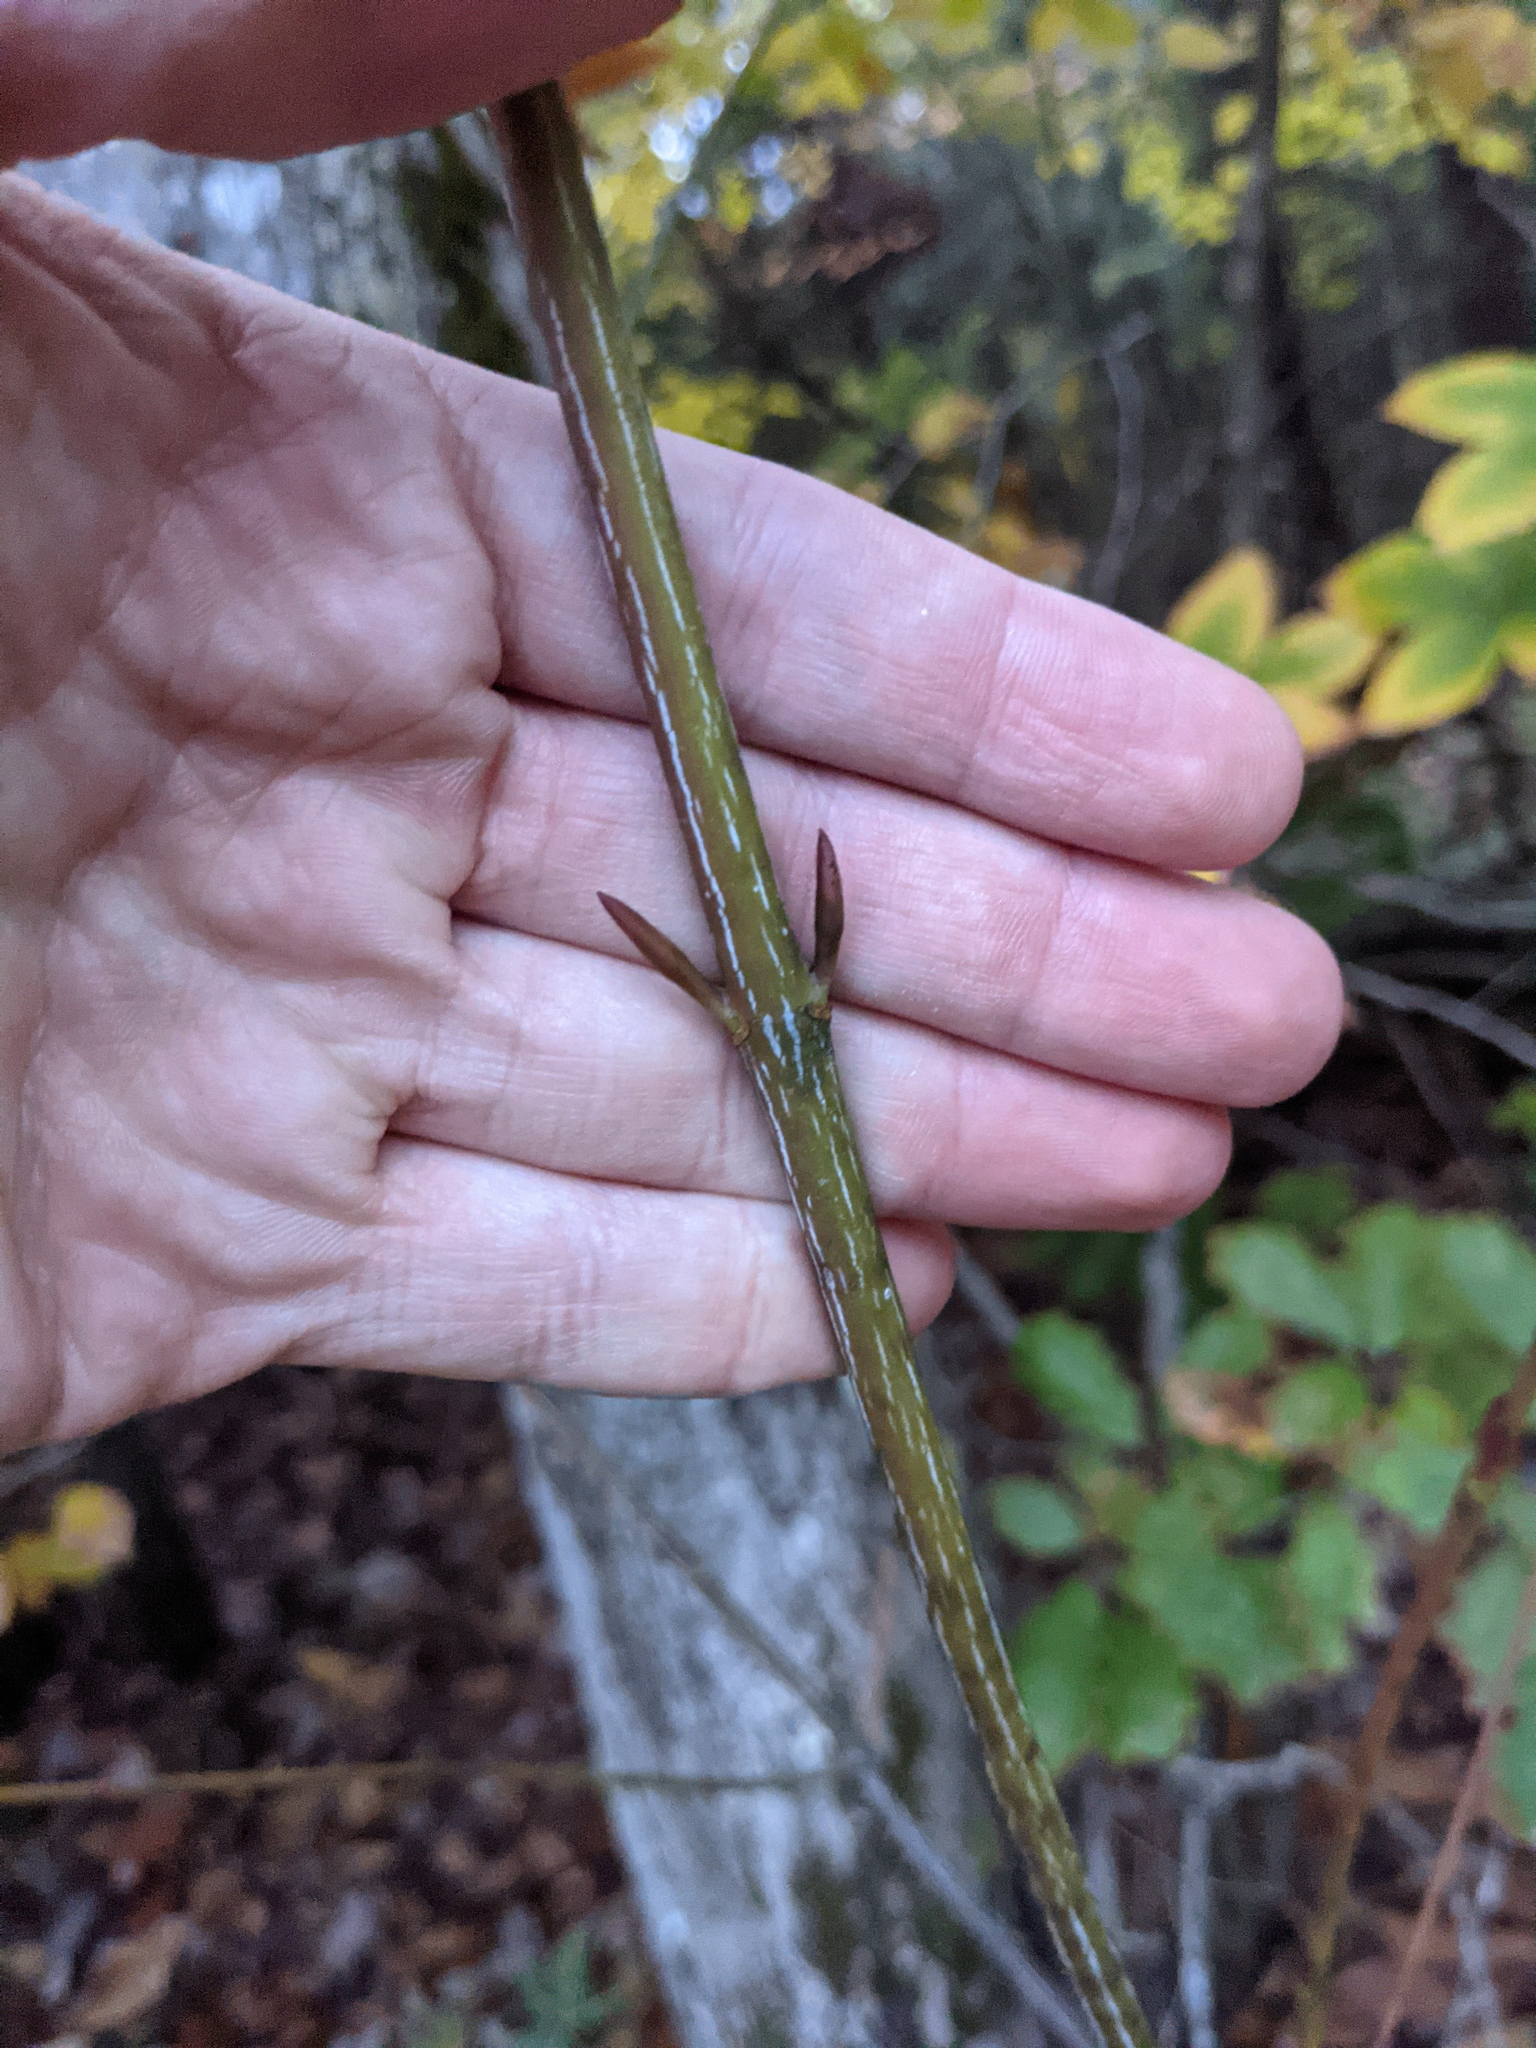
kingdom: Plantae
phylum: Tracheophyta
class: Magnoliopsida
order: Sapindales
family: Sapindaceae
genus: Acer
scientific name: Acer pensylvanicum
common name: Moosewood
